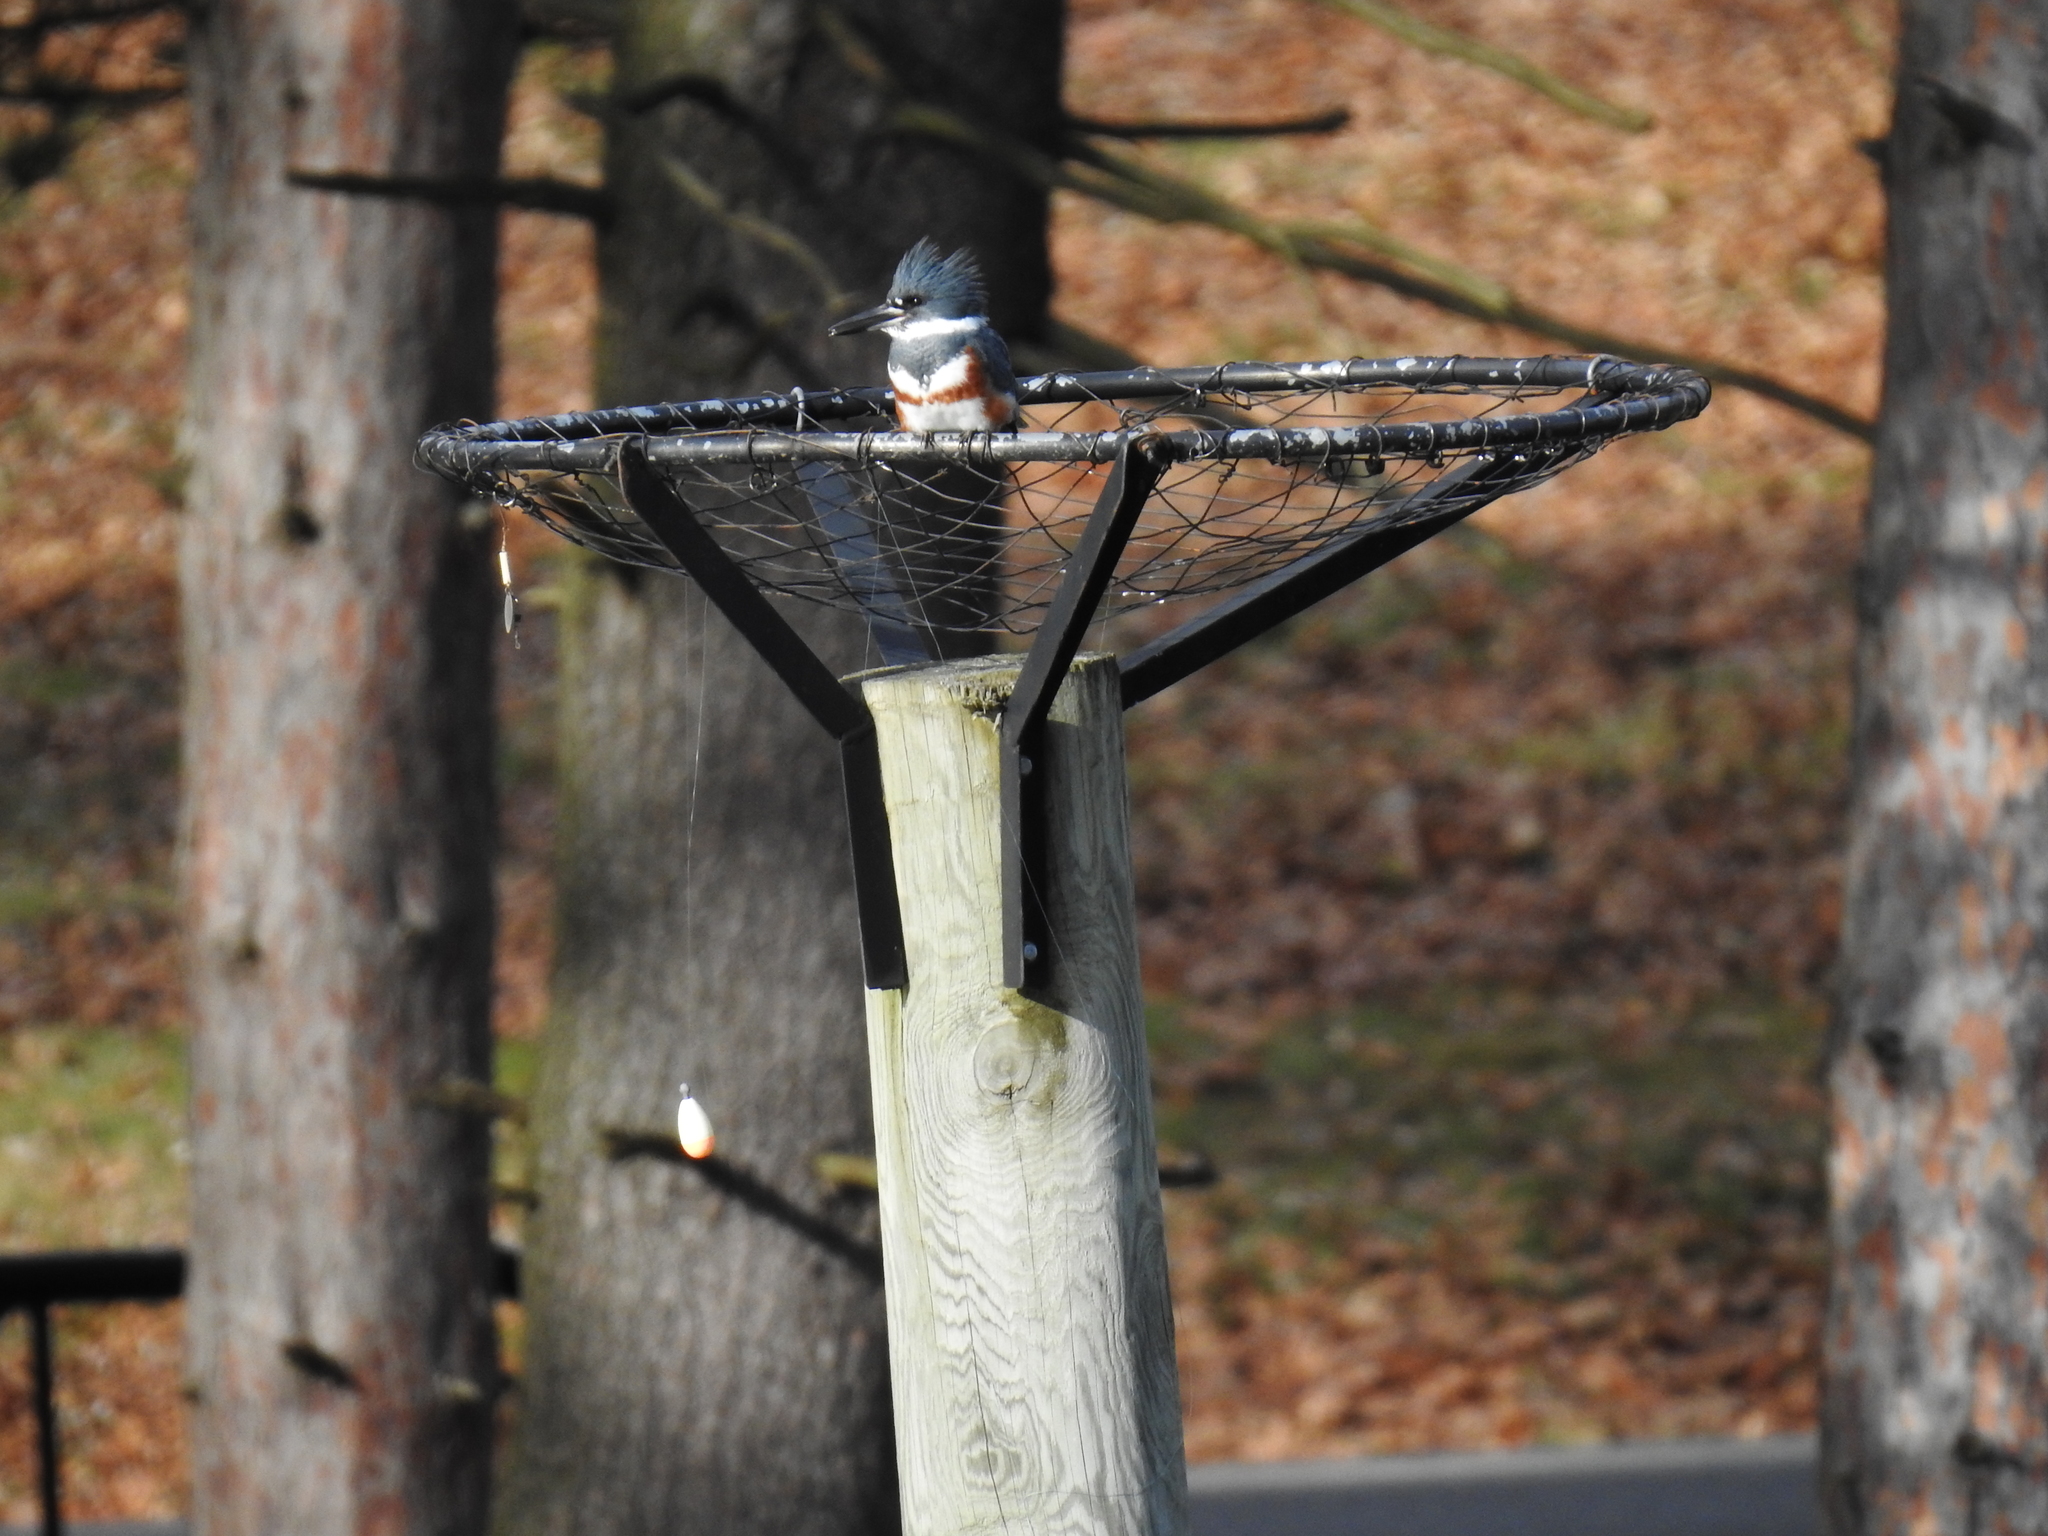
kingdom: Animalia
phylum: Chordata
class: Aves
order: Coraciiformes
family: Alcedinidae
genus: Megaceryle
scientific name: Megaceryle alcyon
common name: Belted kingfisher
